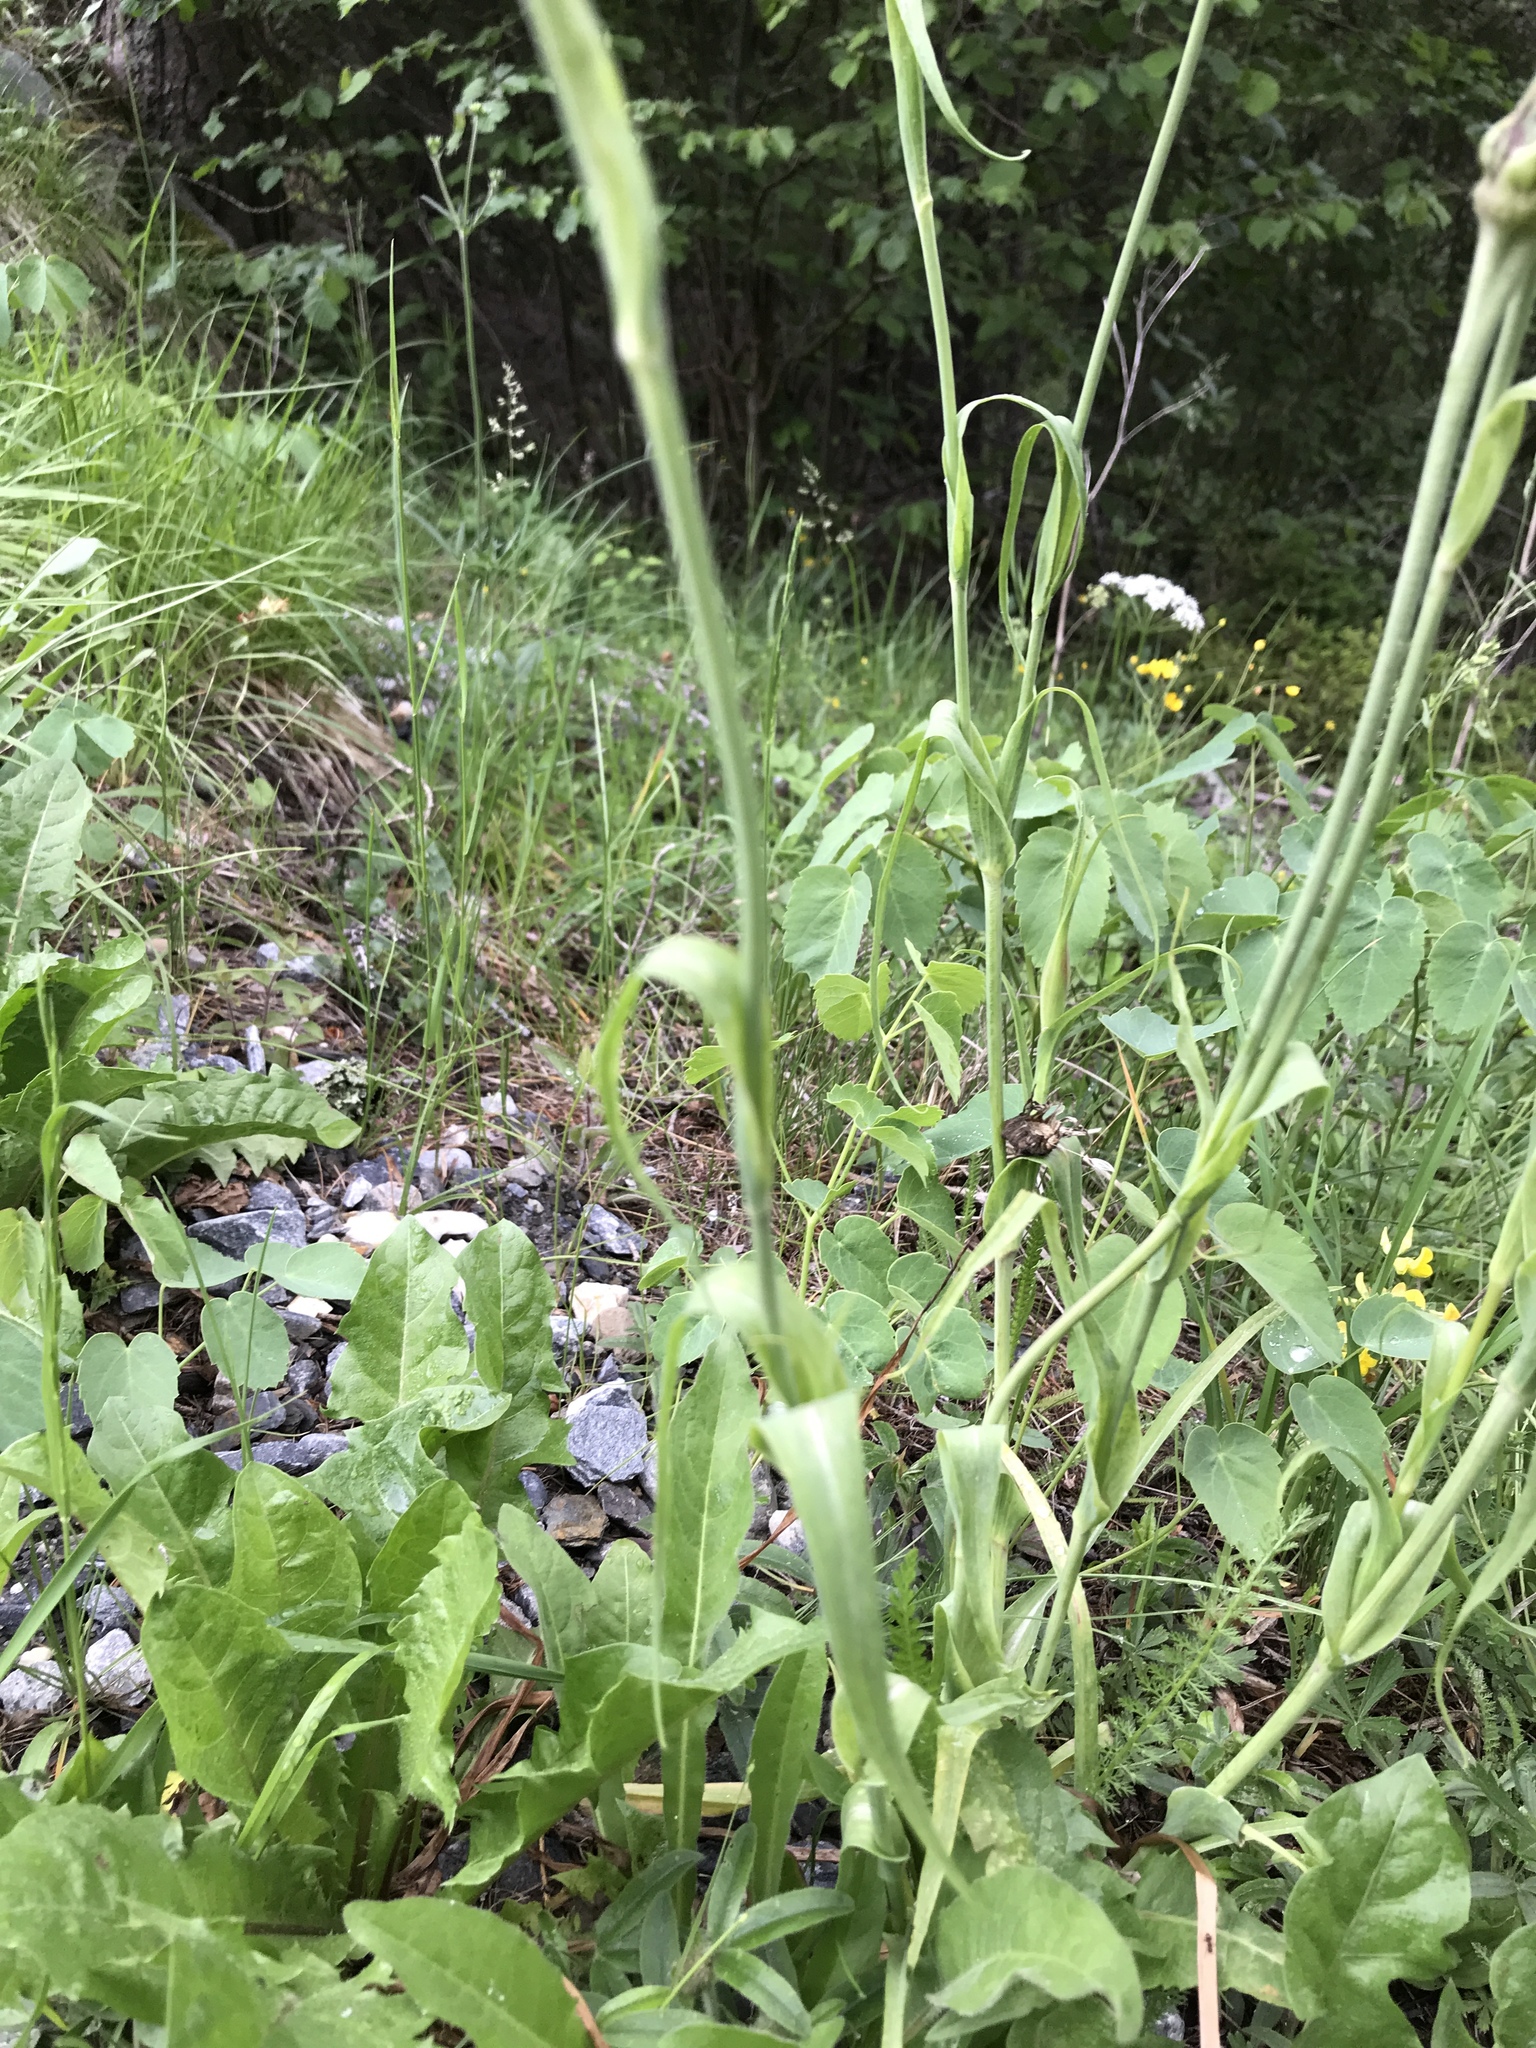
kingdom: Plantae
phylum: Tracheophyta
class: Magnoliopsida
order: Asterales
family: Asteraceae
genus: Tragopogon
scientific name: Tragopogon pratensis
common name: Goat's-beard
